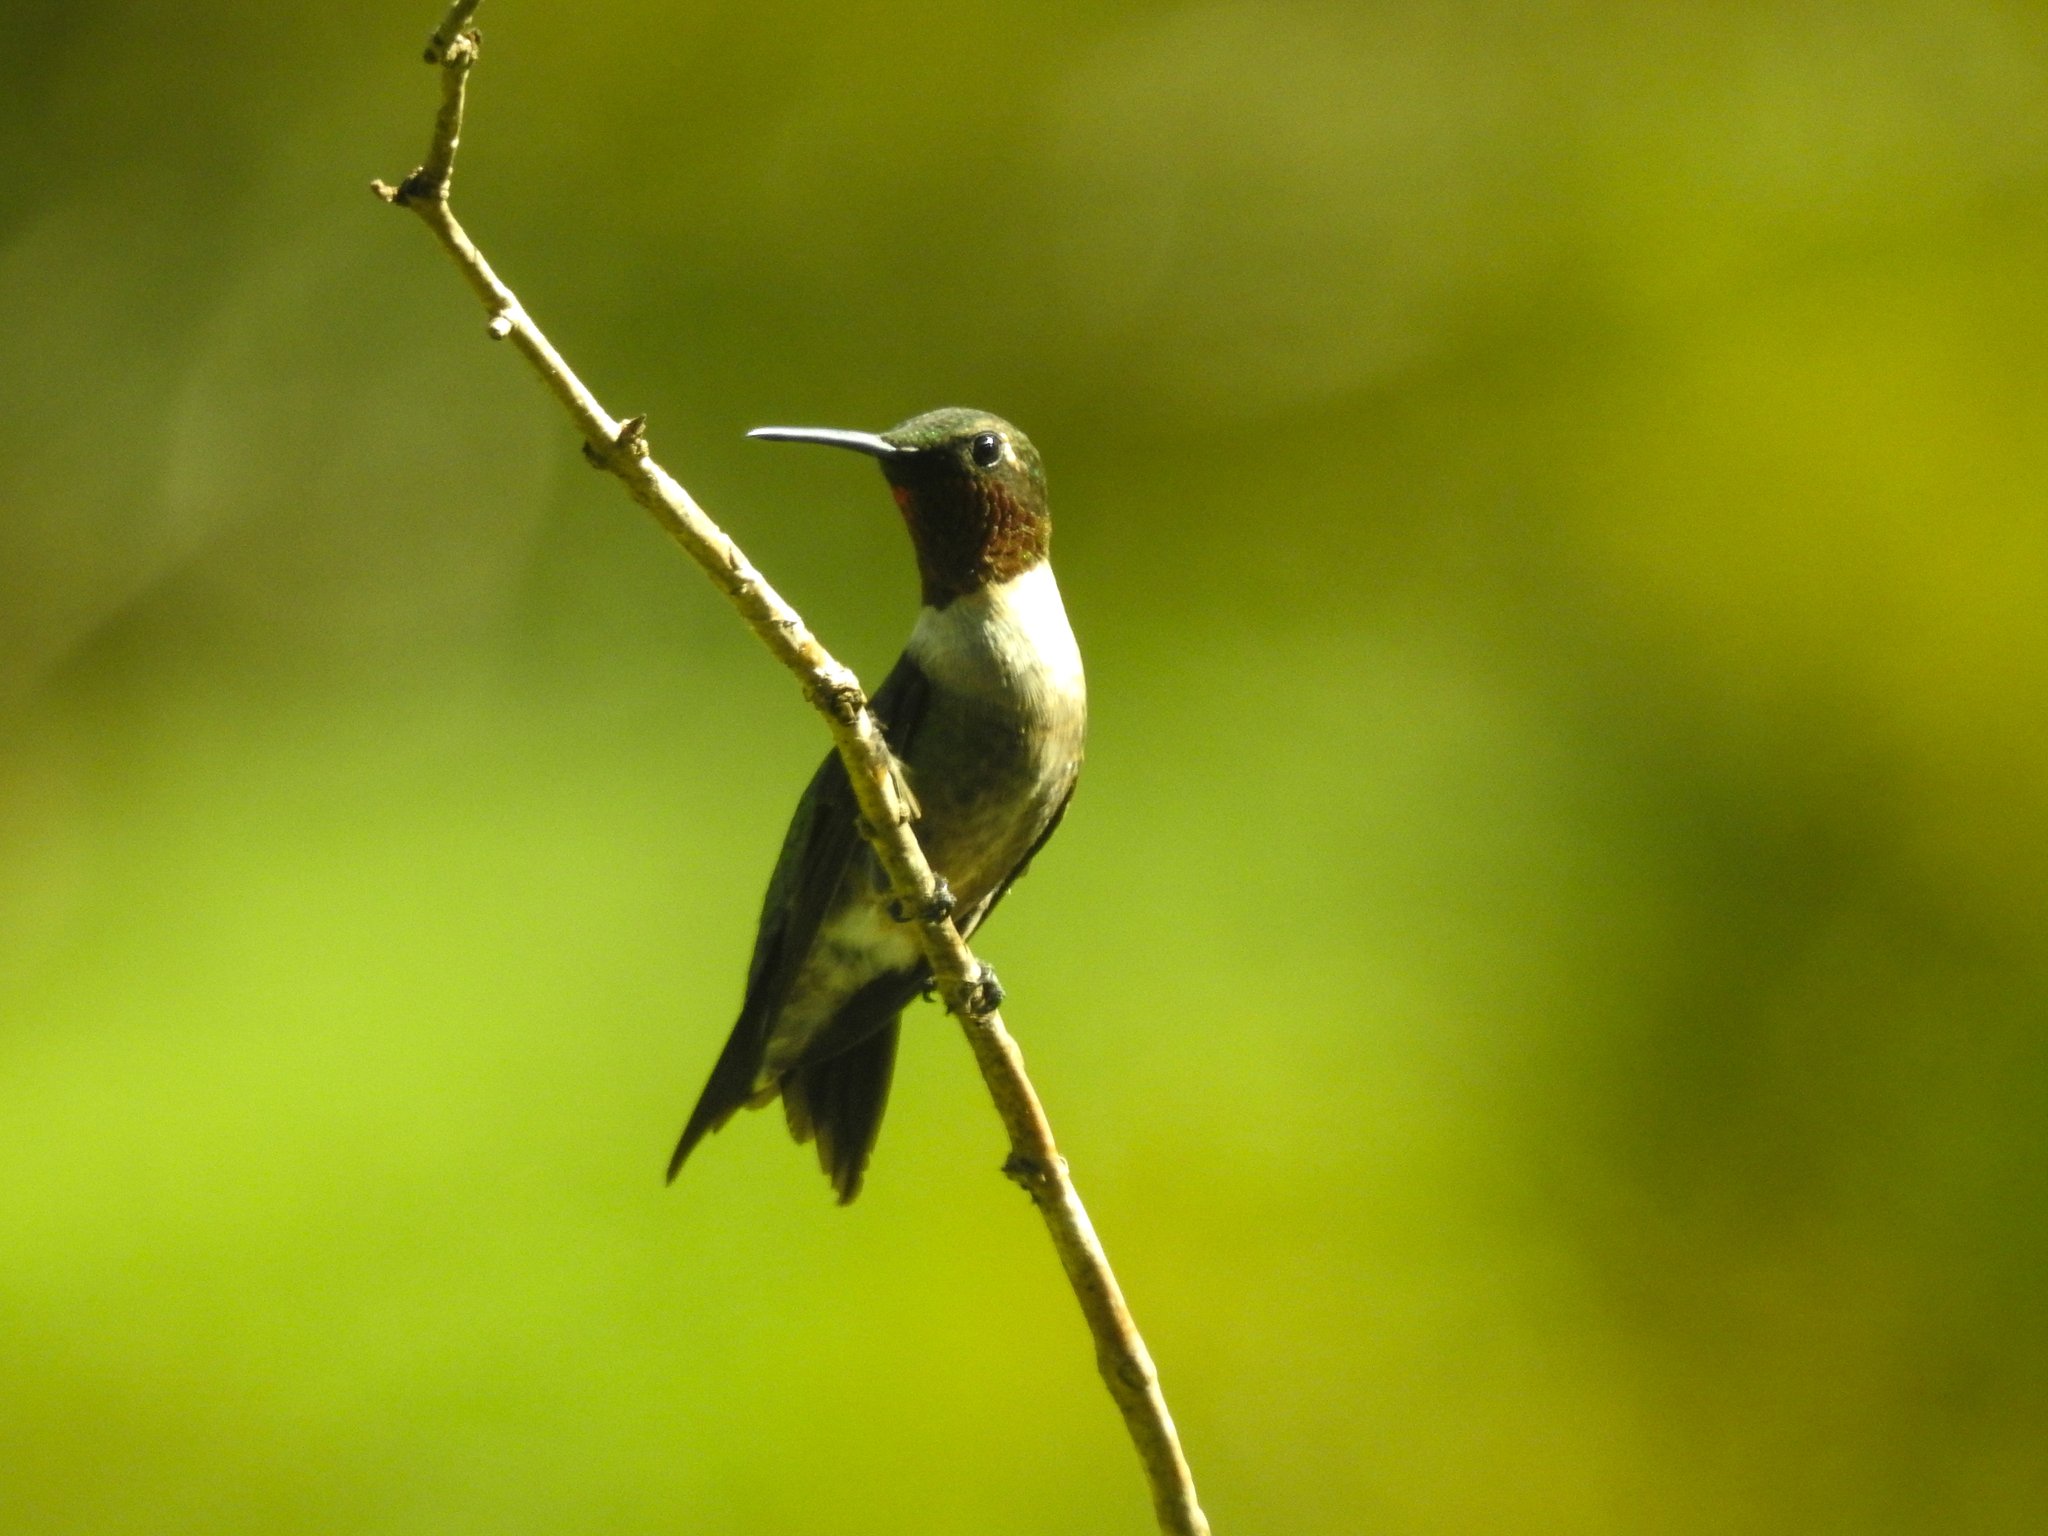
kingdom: Animalia
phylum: Chordata
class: Aves
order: Apodiformes
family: Trochilidae
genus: Archilochus
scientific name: Archilochus colubris
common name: Ruby-throated hummingbird
